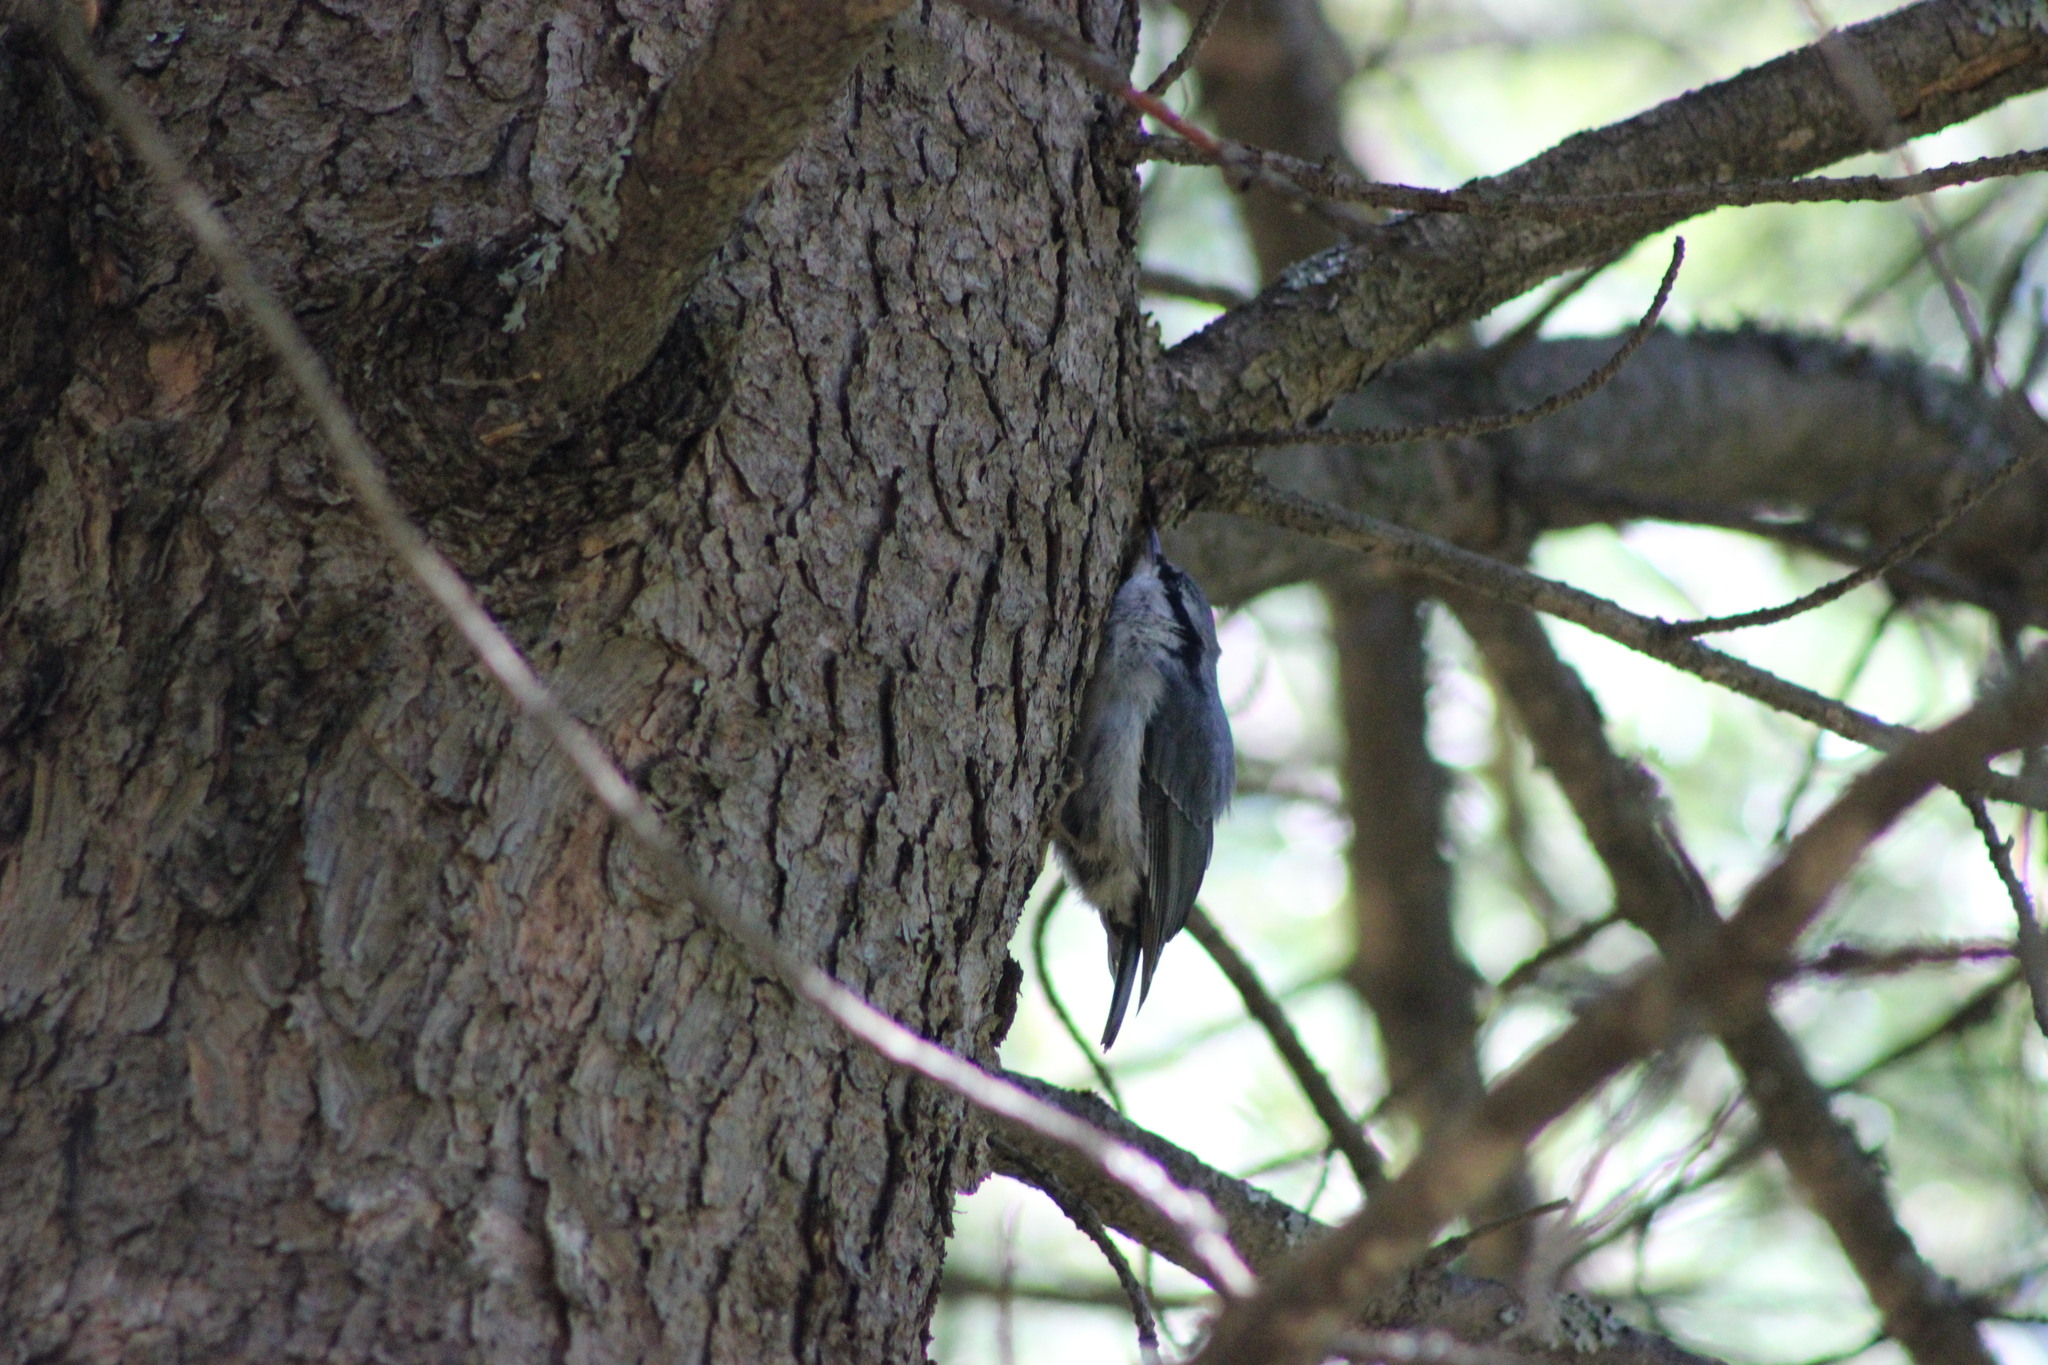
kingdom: Animalia
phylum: Chordata
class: Aves
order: Passeriformes
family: Sittidae
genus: Sitta
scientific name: Sitta europaea
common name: Eurasian nuthatch
